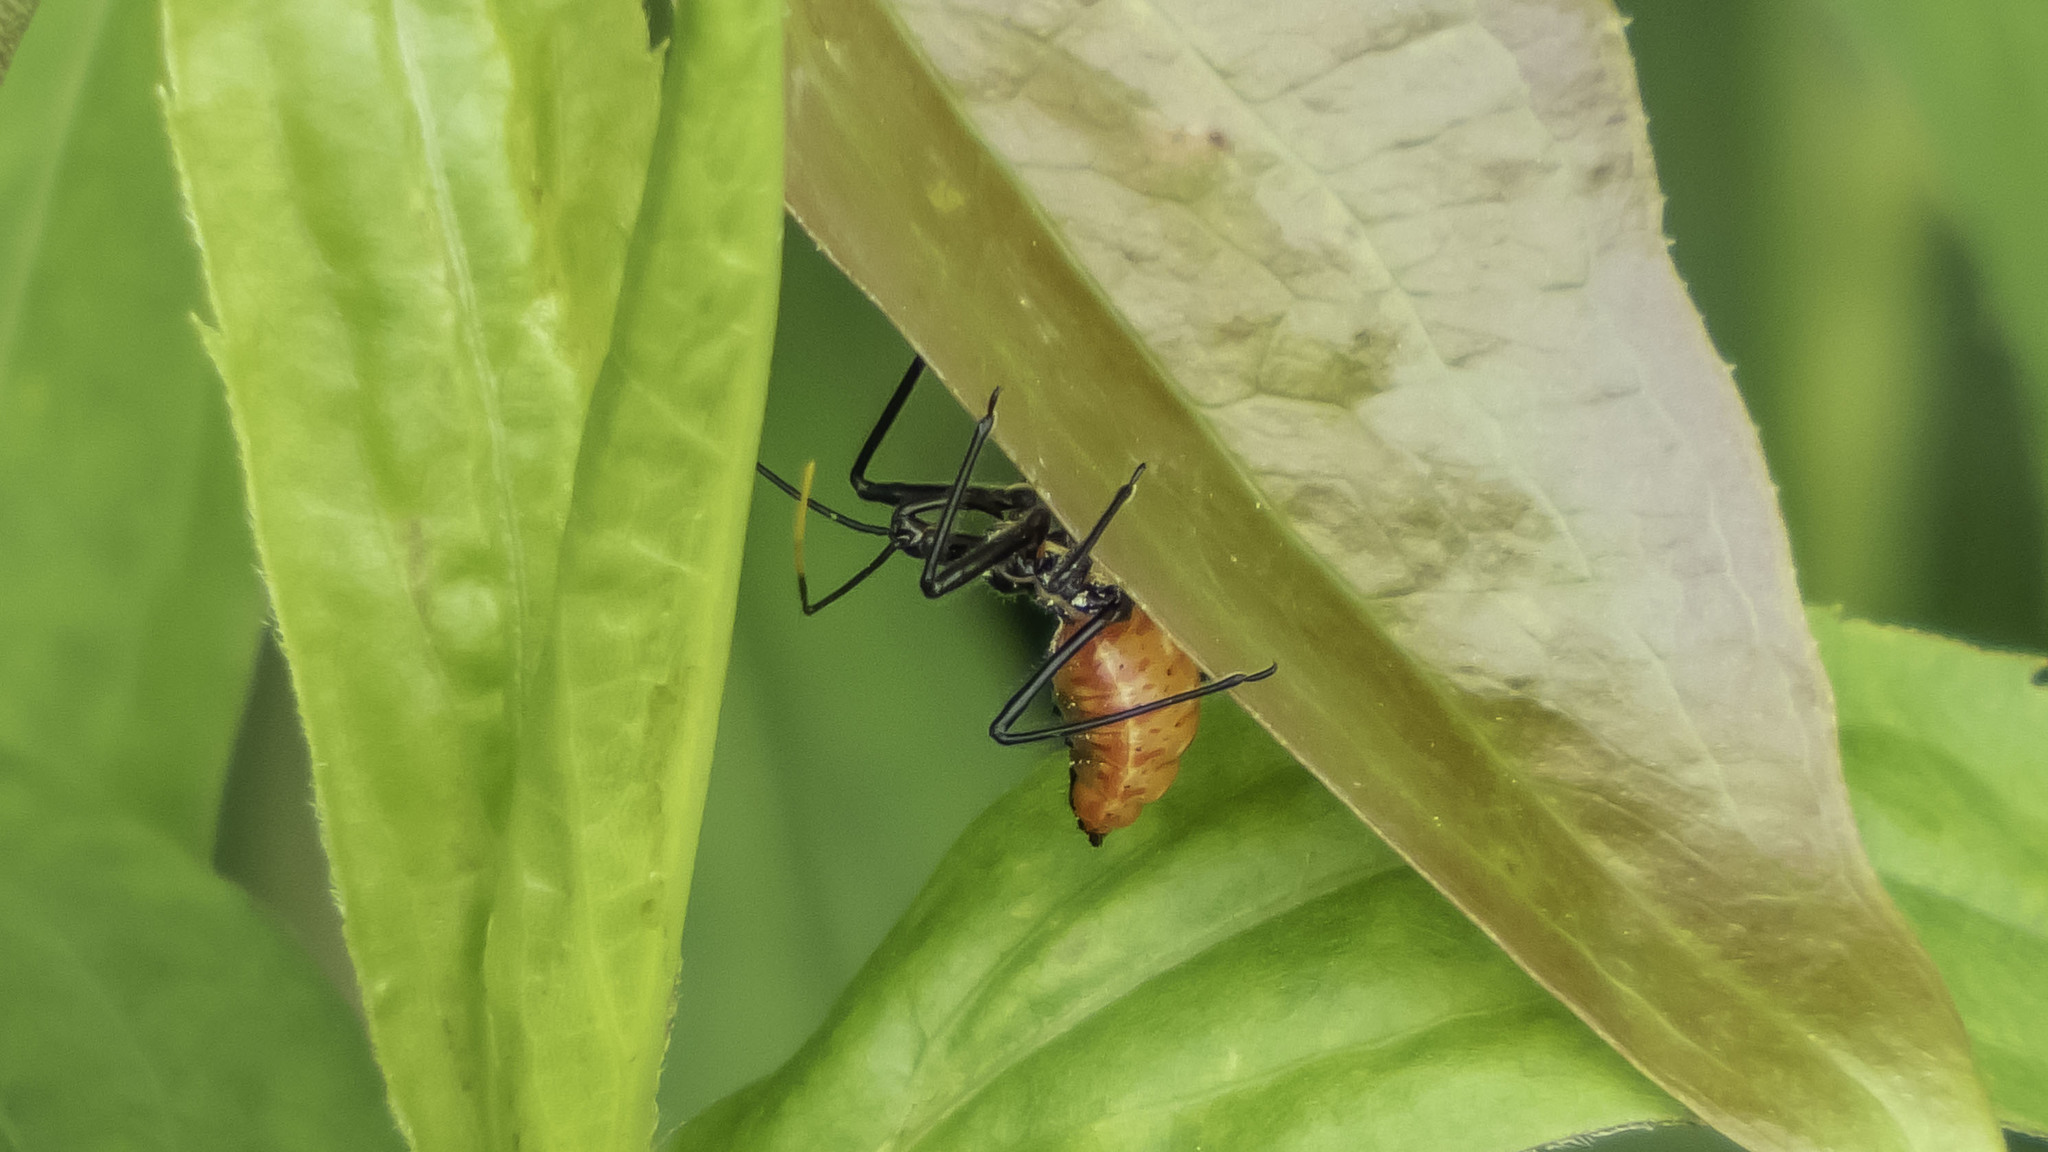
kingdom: Animalia
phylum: Arthropoda
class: Insecta
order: Hemiptera
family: Reduviidae
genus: Arilus
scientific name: Arilus cristatus
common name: North american wheel bug
